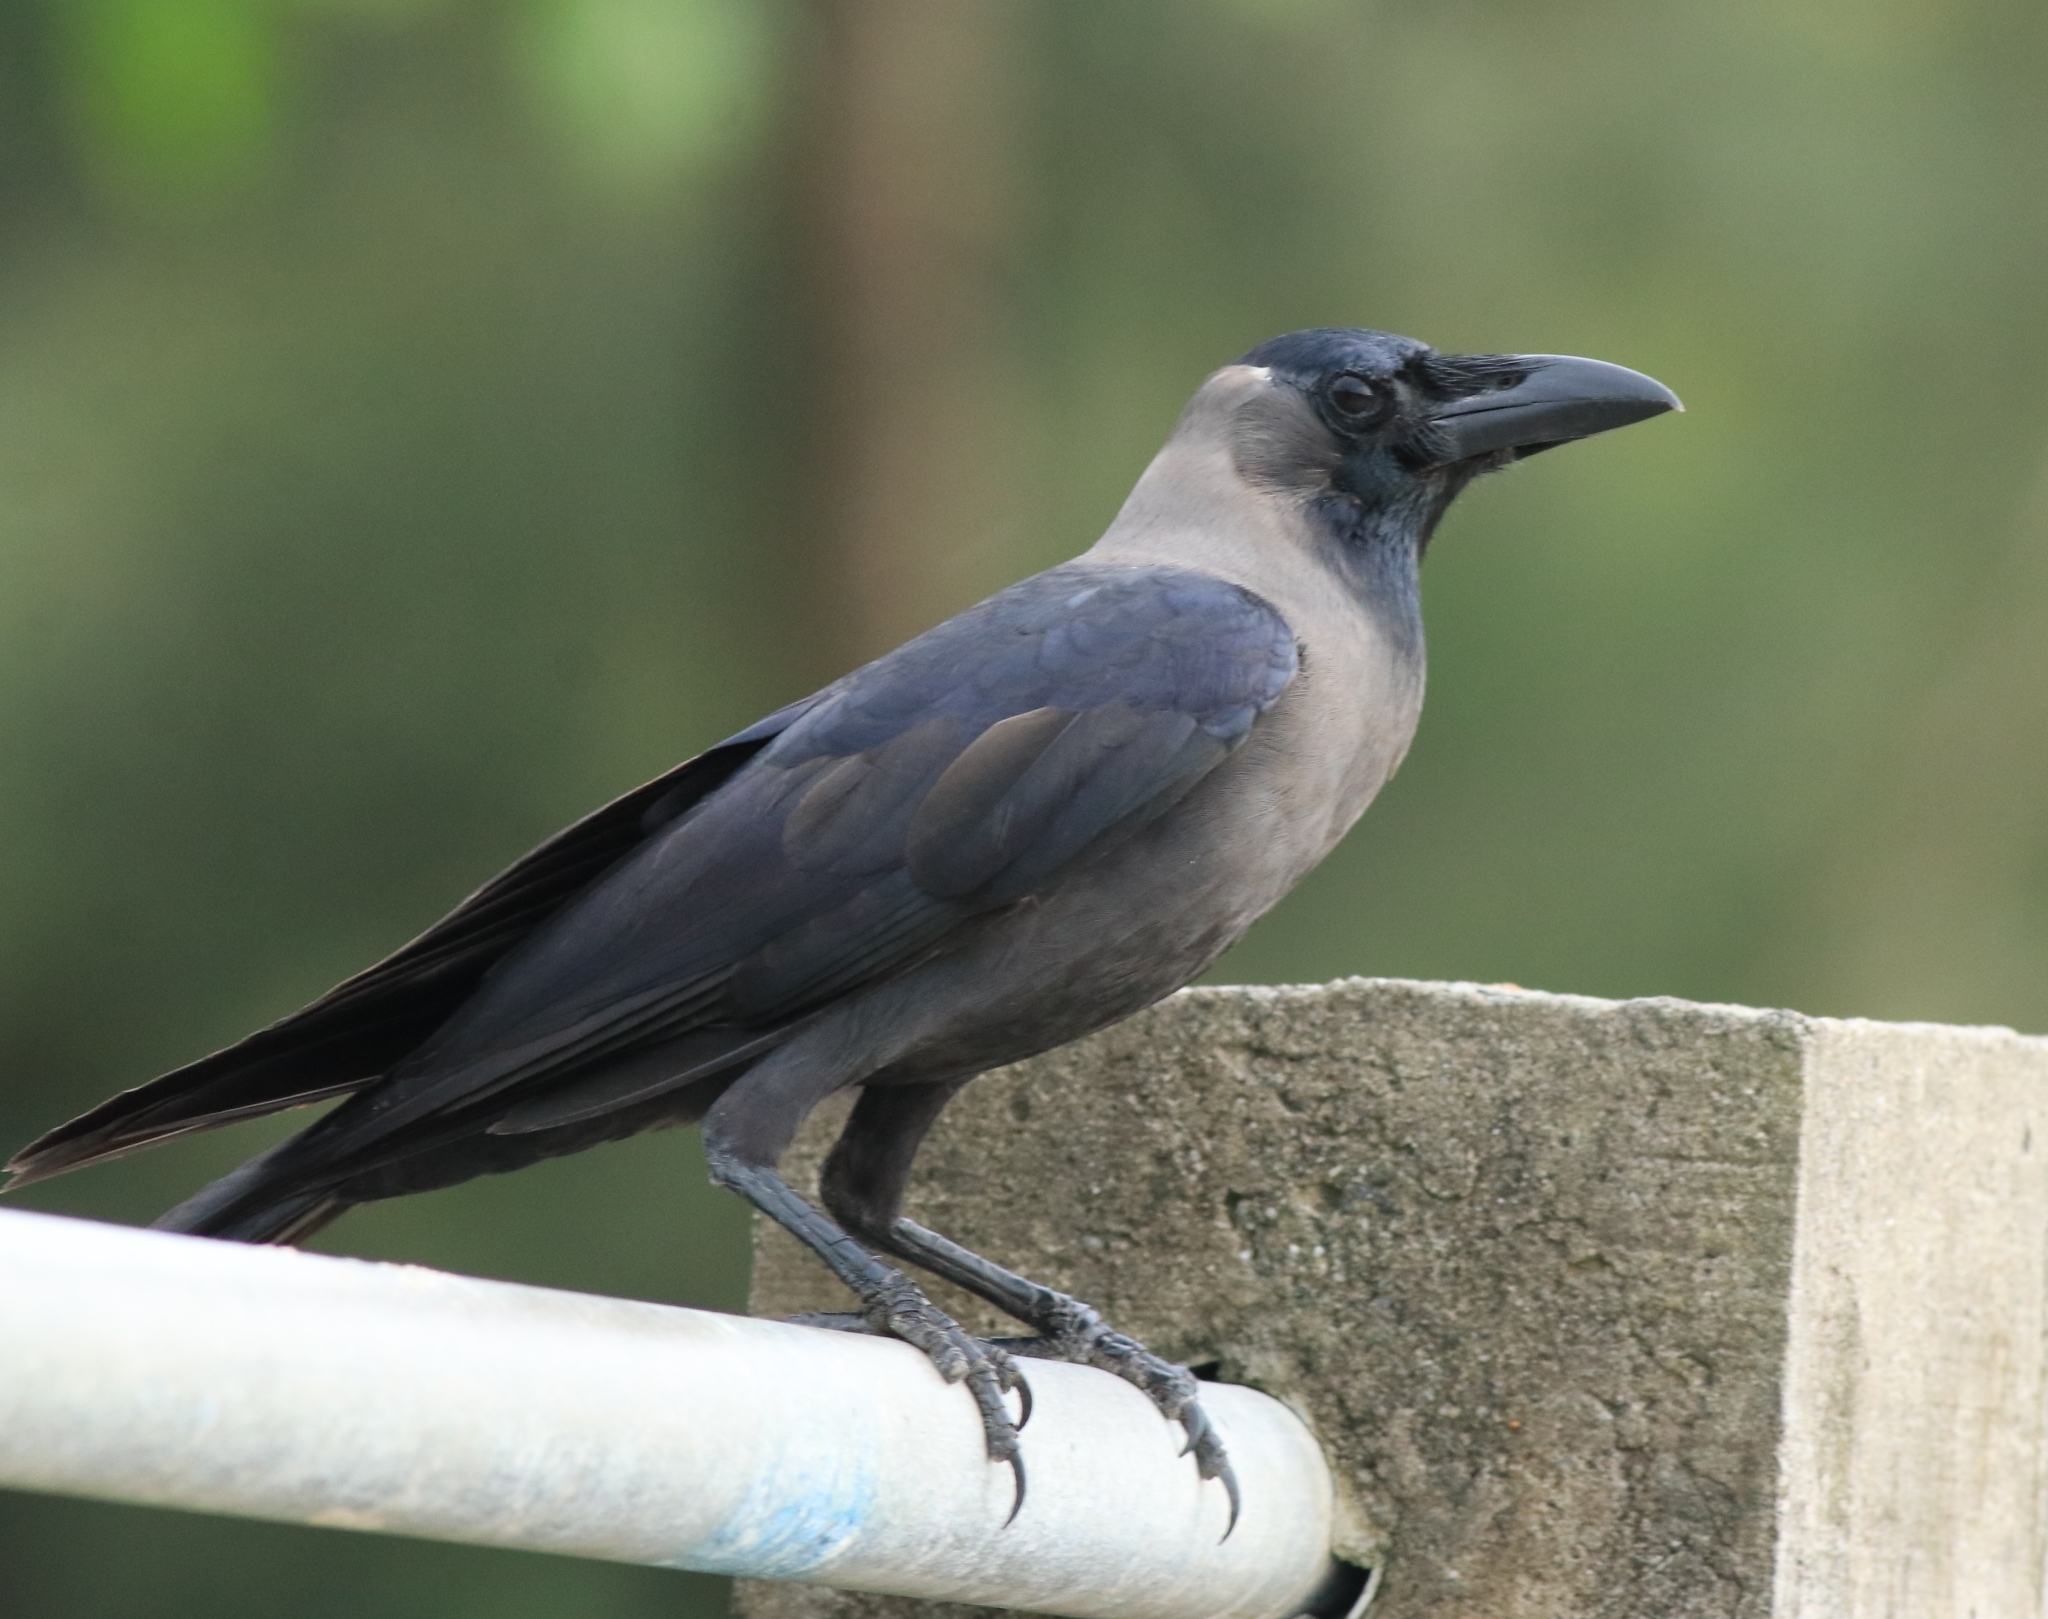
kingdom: Animalia
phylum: Chordata
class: Aves
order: Passeriformes
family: Corvidae
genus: Corvus
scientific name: Corvus splendens
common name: House crow
